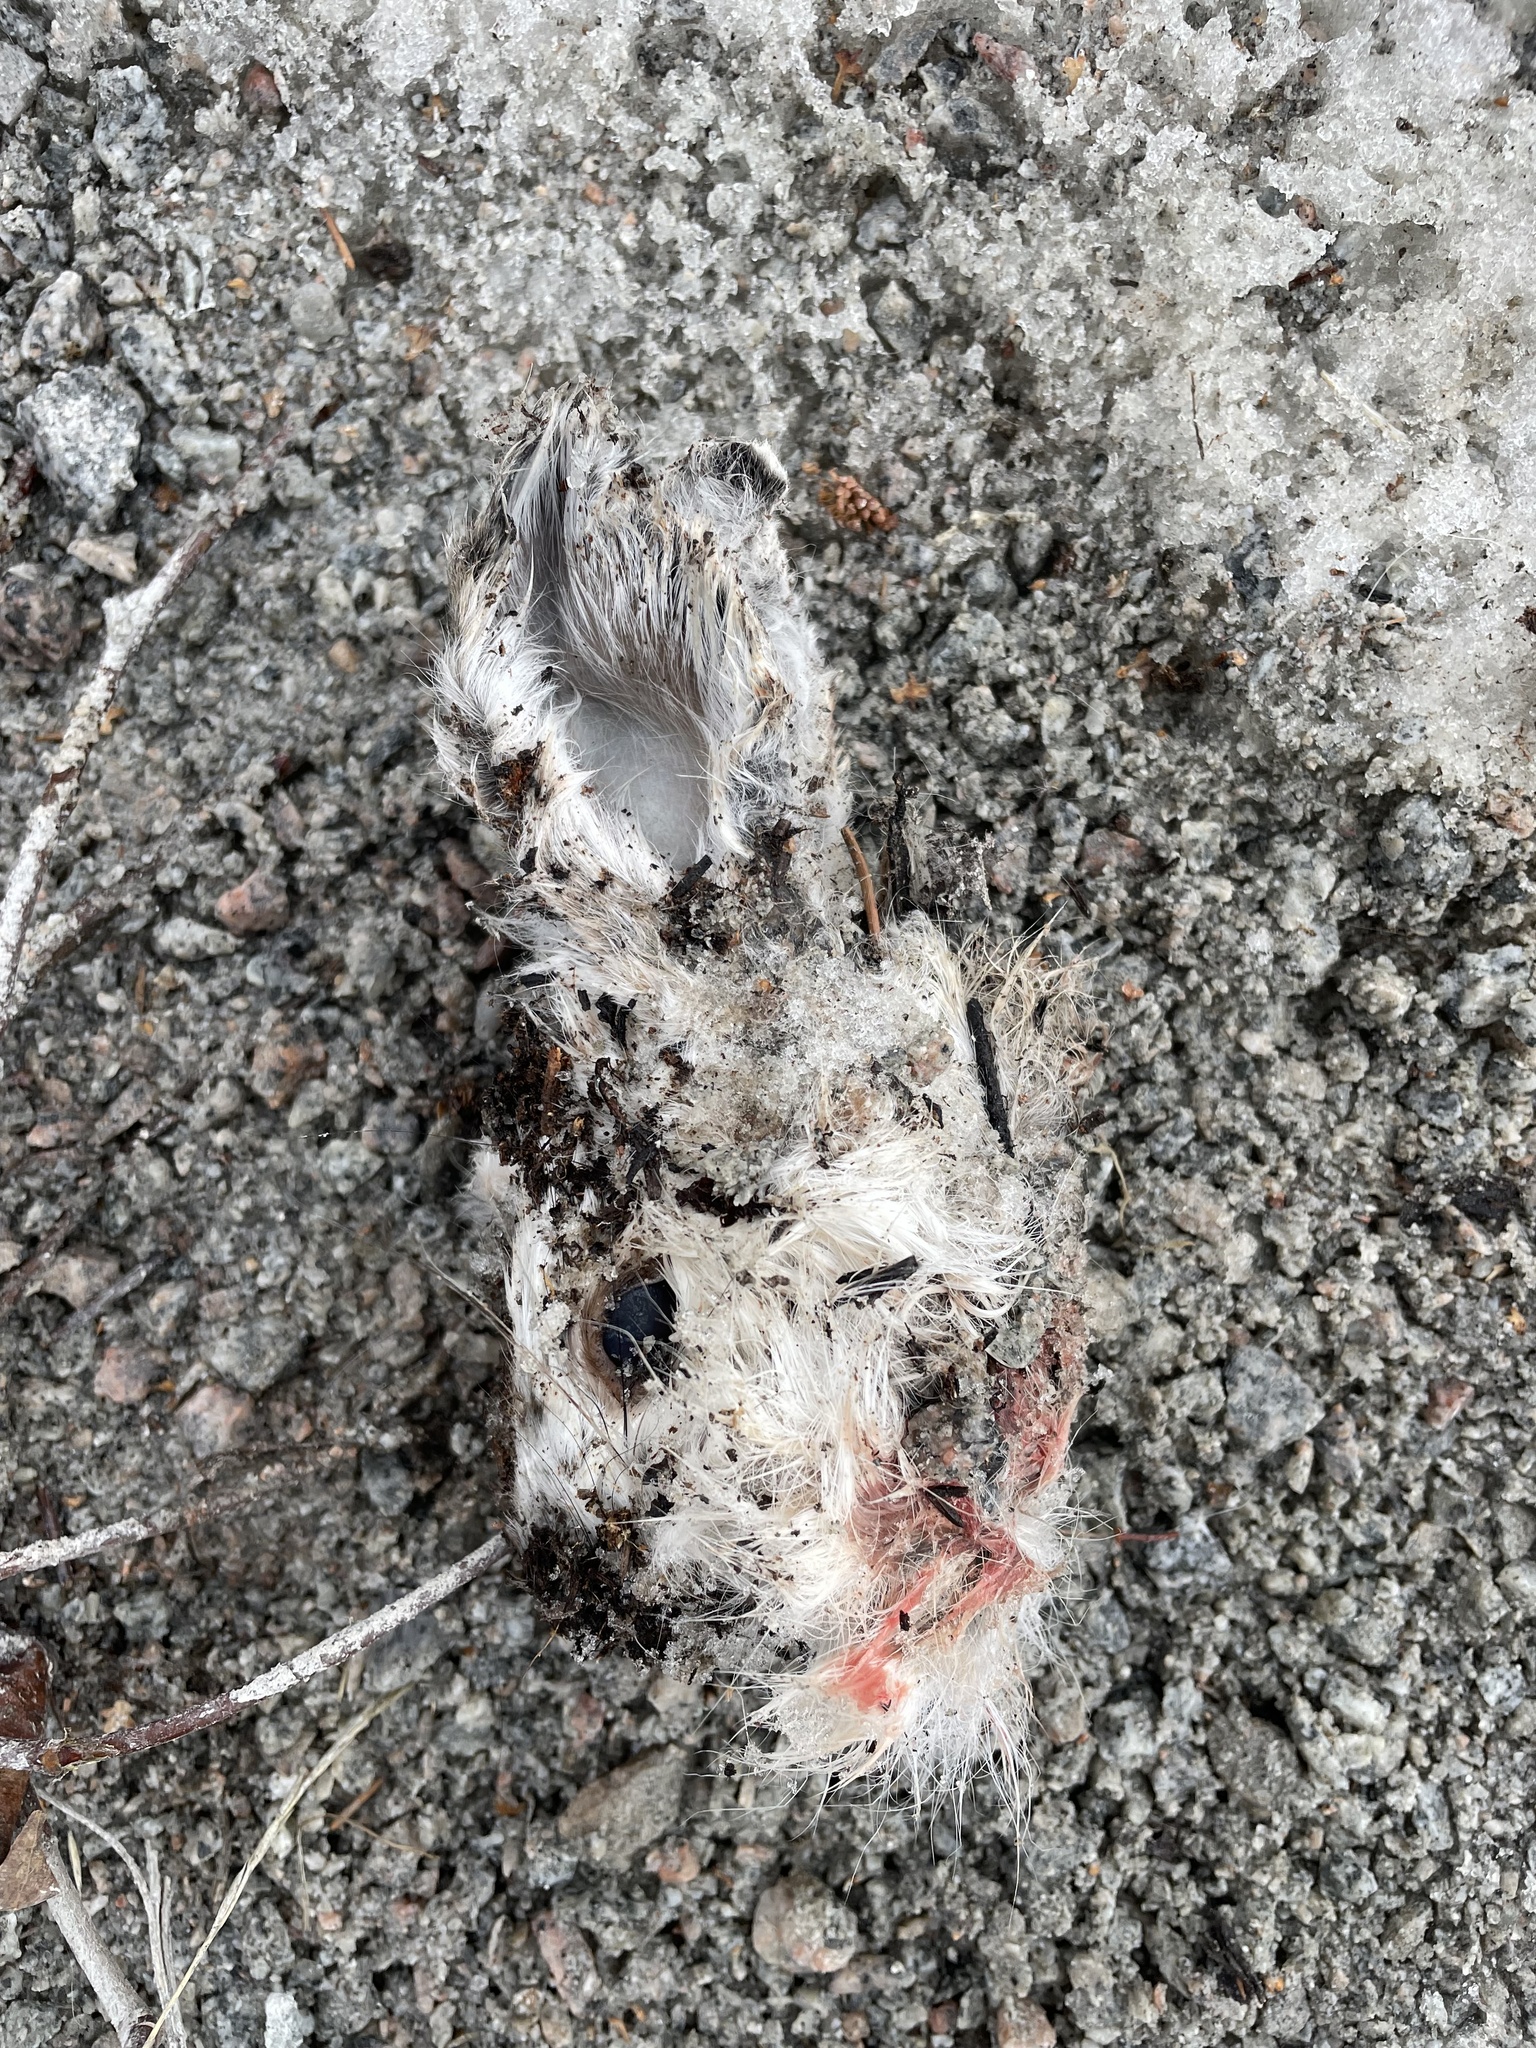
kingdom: Animalia
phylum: Chordata
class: Mammalia
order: Lagomorpha
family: Leporidae
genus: Lepus
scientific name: Lepus americanus
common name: Snowshoe hare
